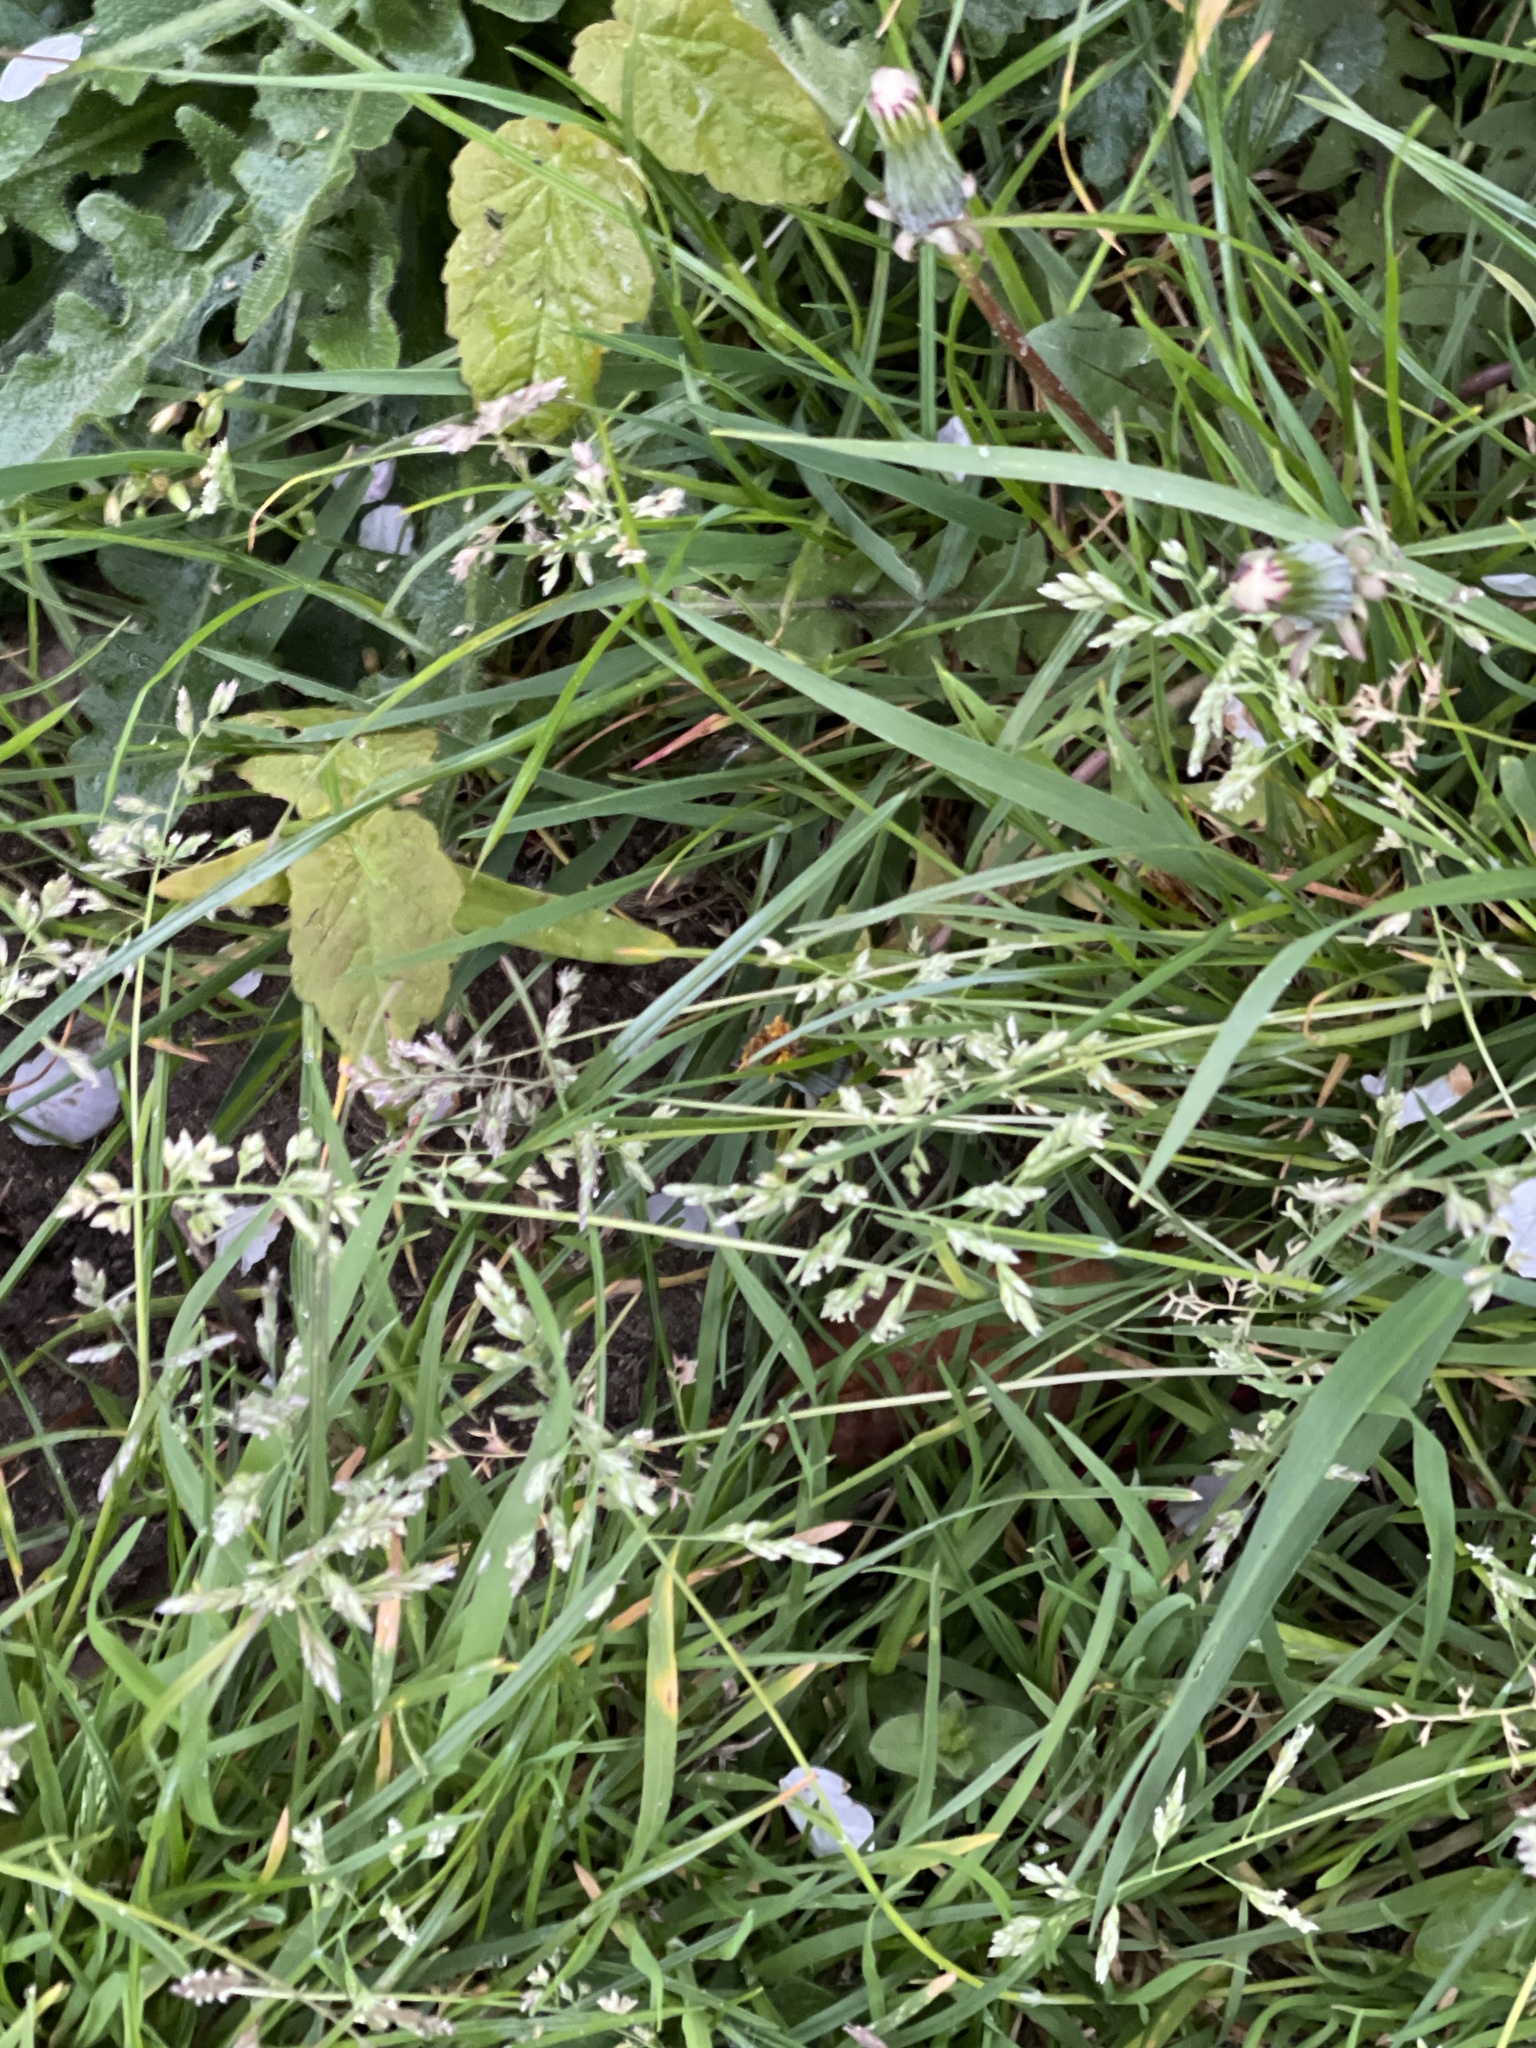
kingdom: Plantae
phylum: Tracheophyta
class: Liliopsida
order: Poales
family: Poaceae
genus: Poa
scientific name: Poa annua
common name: Annual bluegrass
